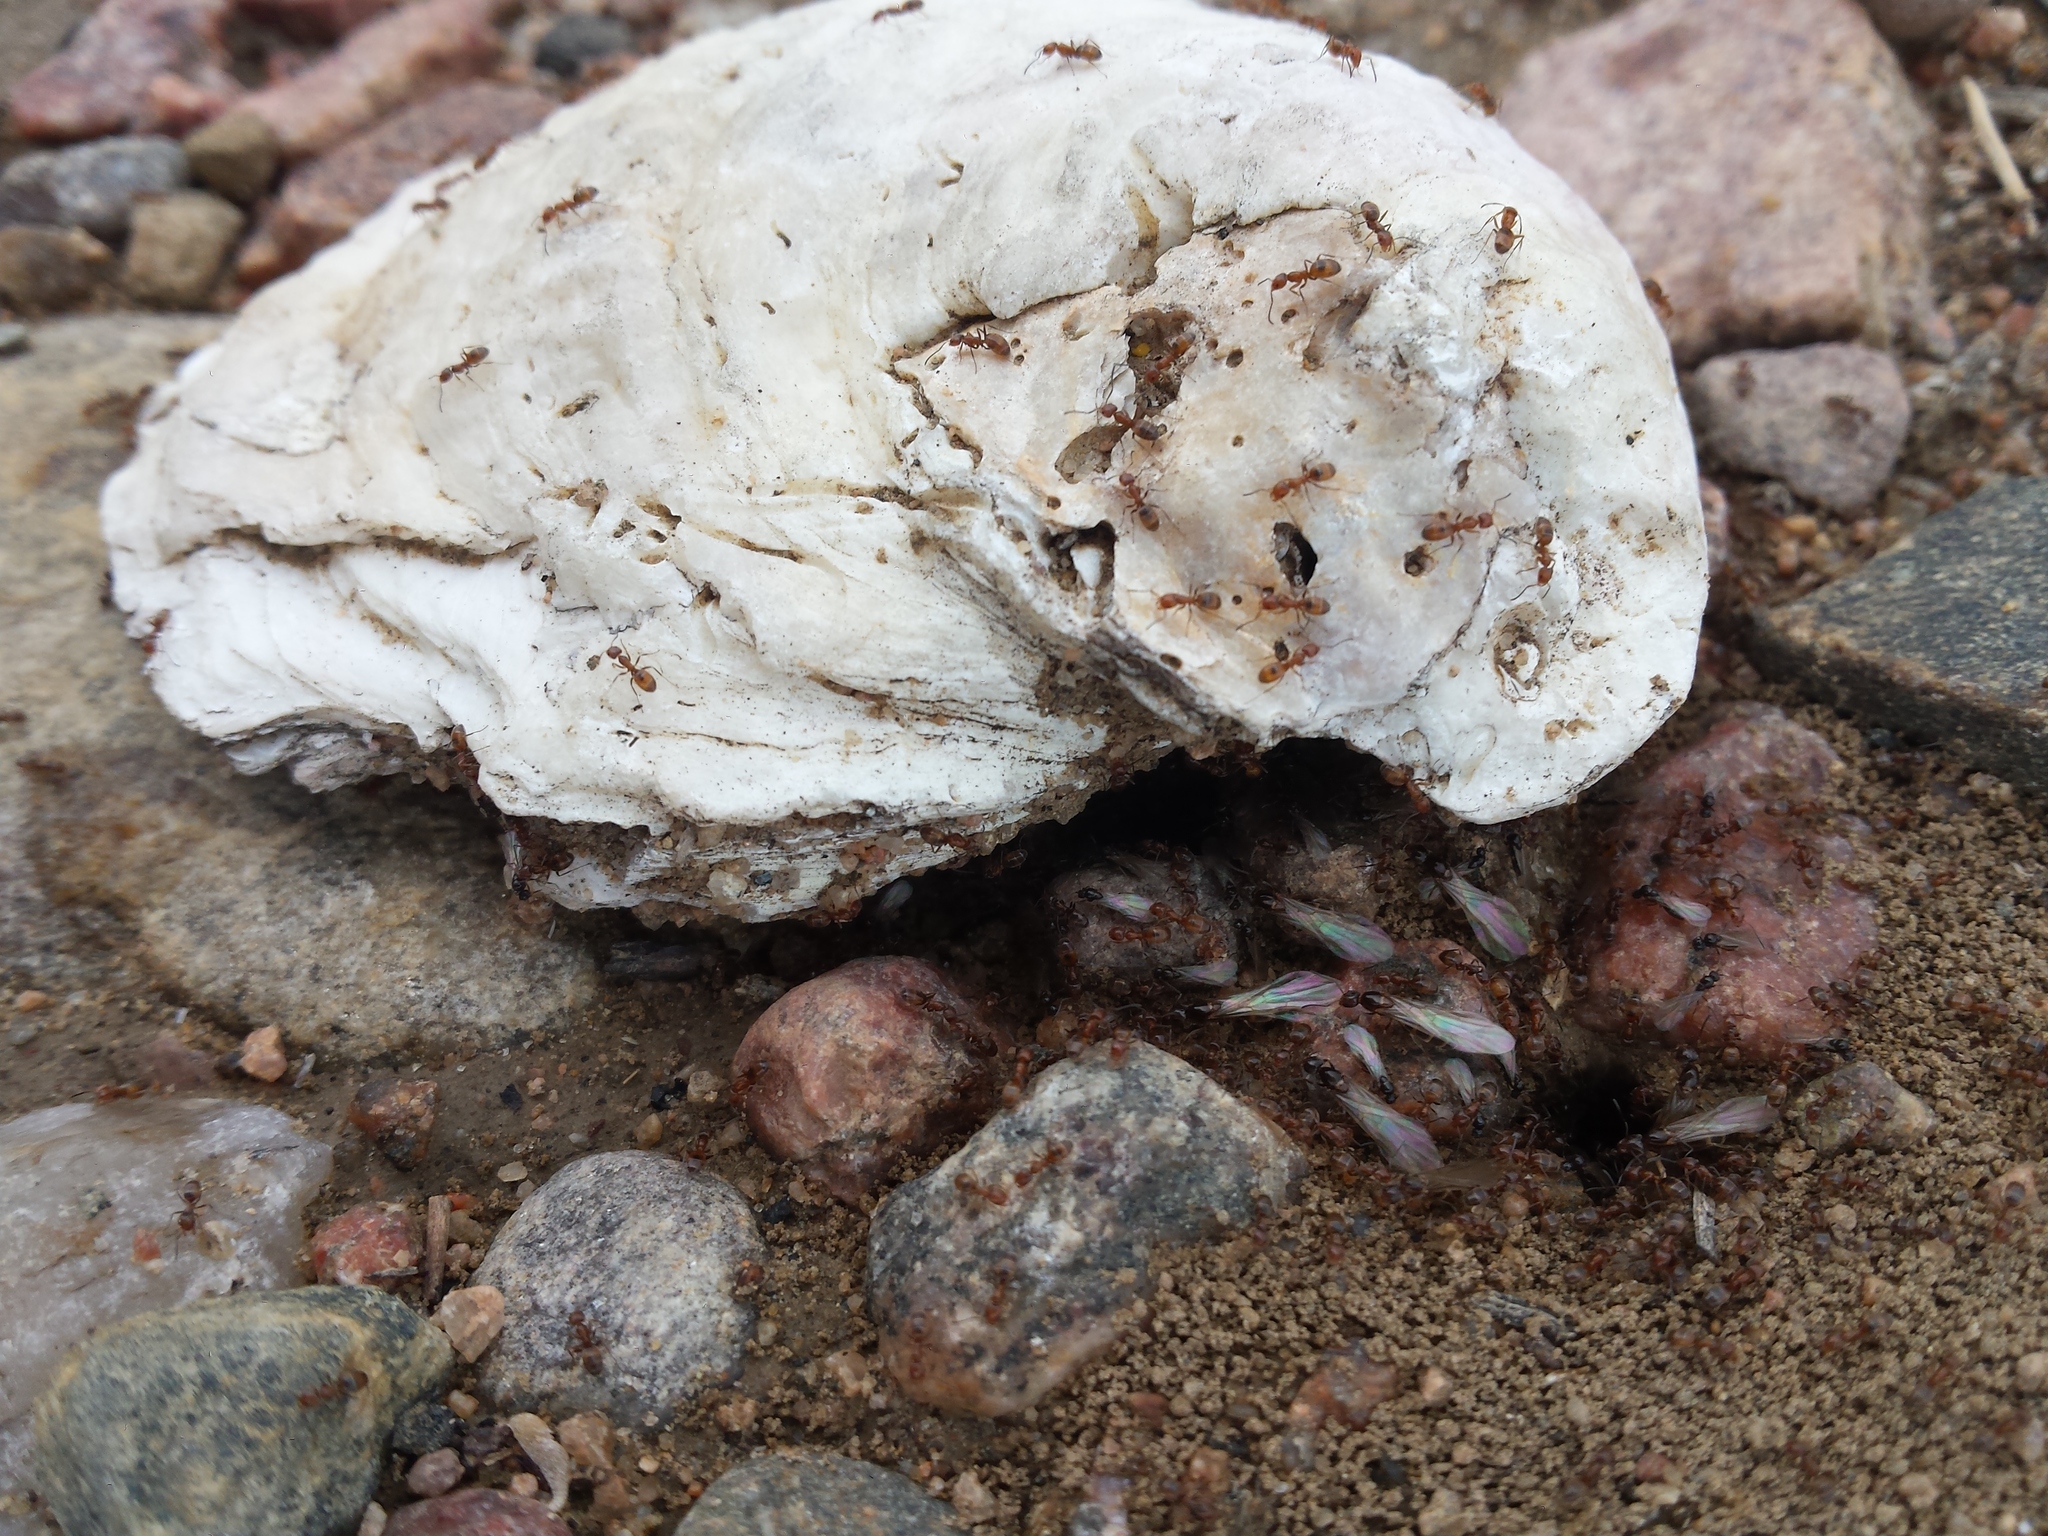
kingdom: Animalia
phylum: Arthropoda
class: Insecta
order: Hymenoptera
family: Formicidae
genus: Forelius
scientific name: Forelius
